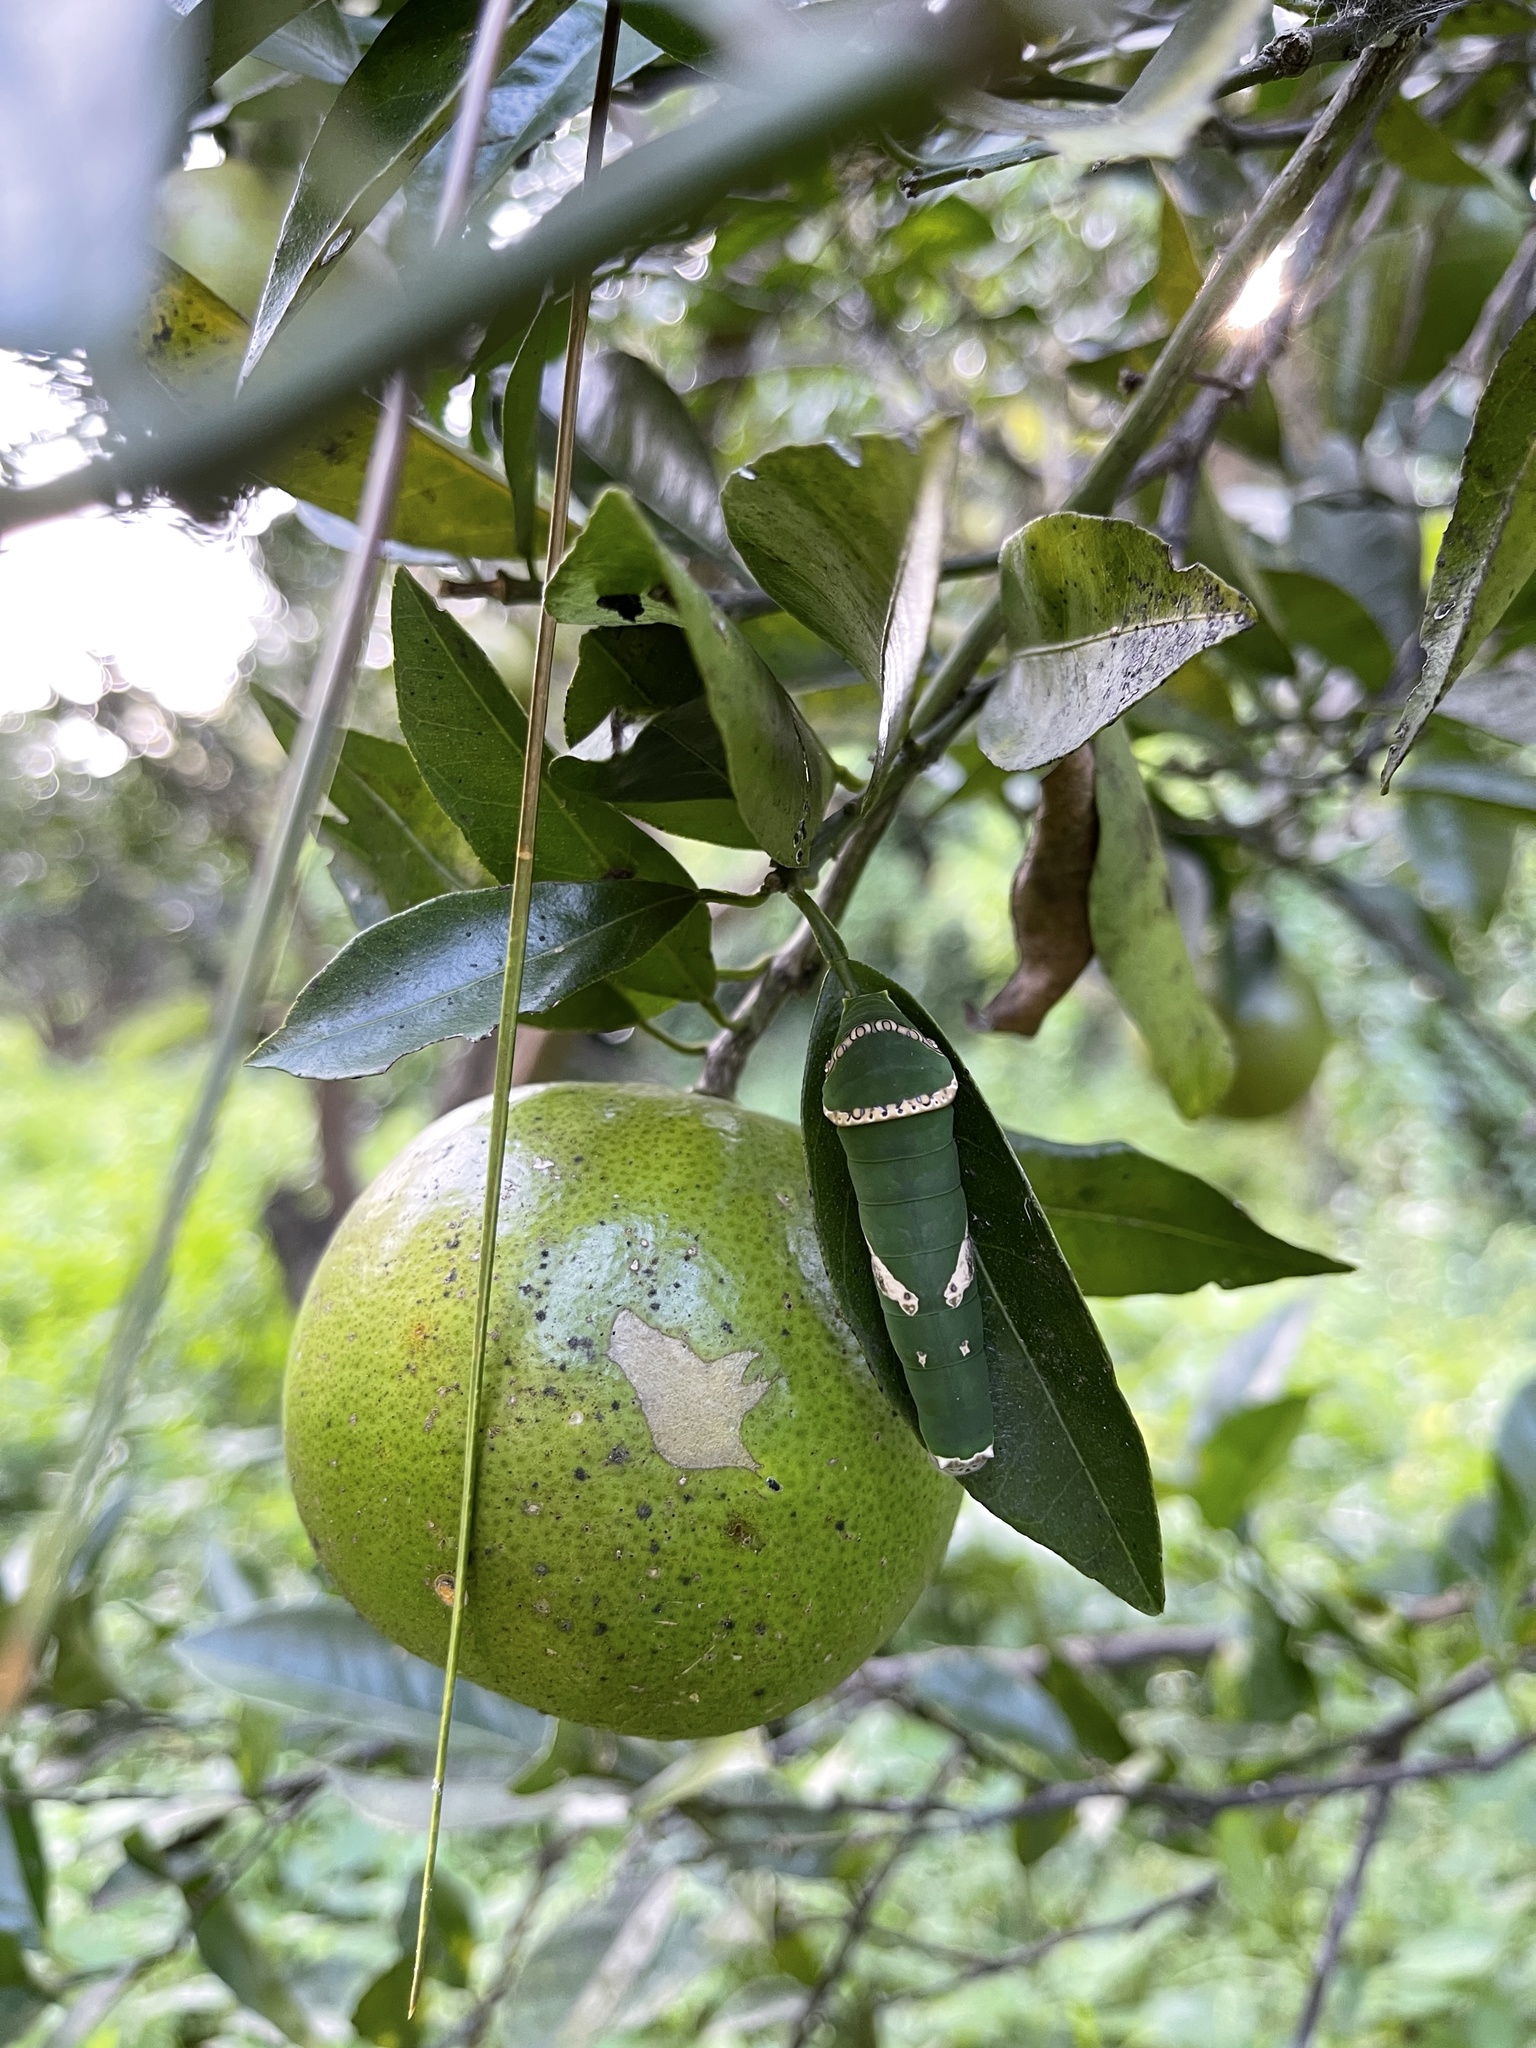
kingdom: Animalia
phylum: Arthropoda
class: Insecta
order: Lepidoptera
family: Papilionidae
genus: Papilio
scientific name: Papilio polytes
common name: Common mormon
